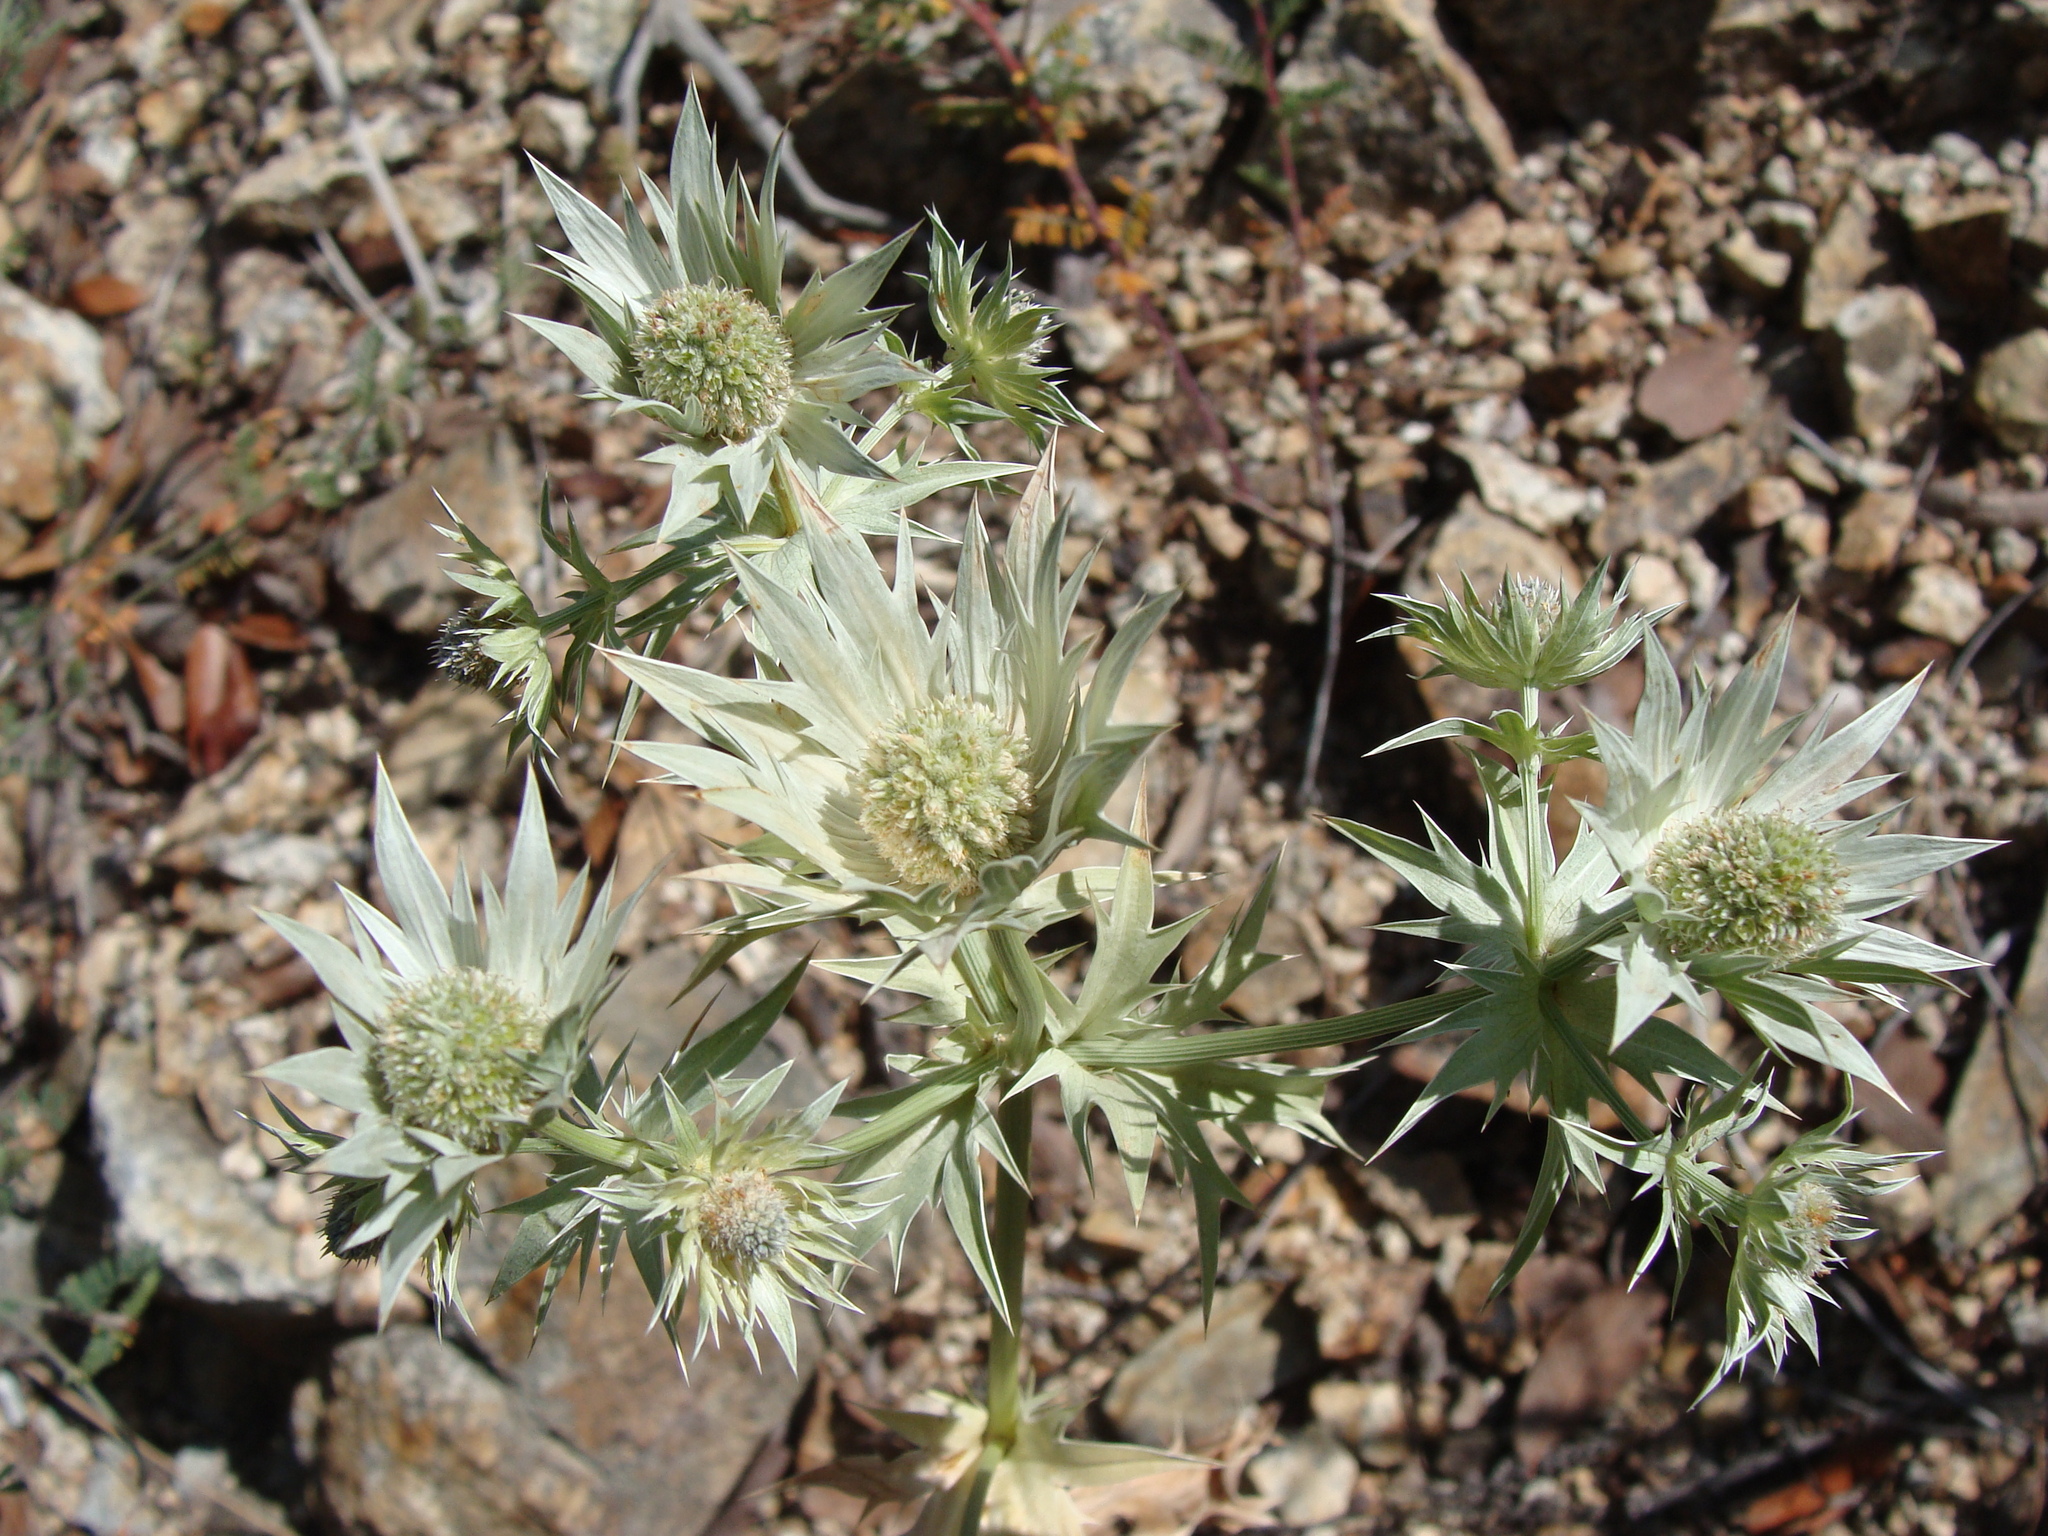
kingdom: Plantae
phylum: Tracheophyta
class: Magnoliopsida
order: Apiales
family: Apiaceae
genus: Eryngium
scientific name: Eryngium heterophyllum
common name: Mexican thistle
